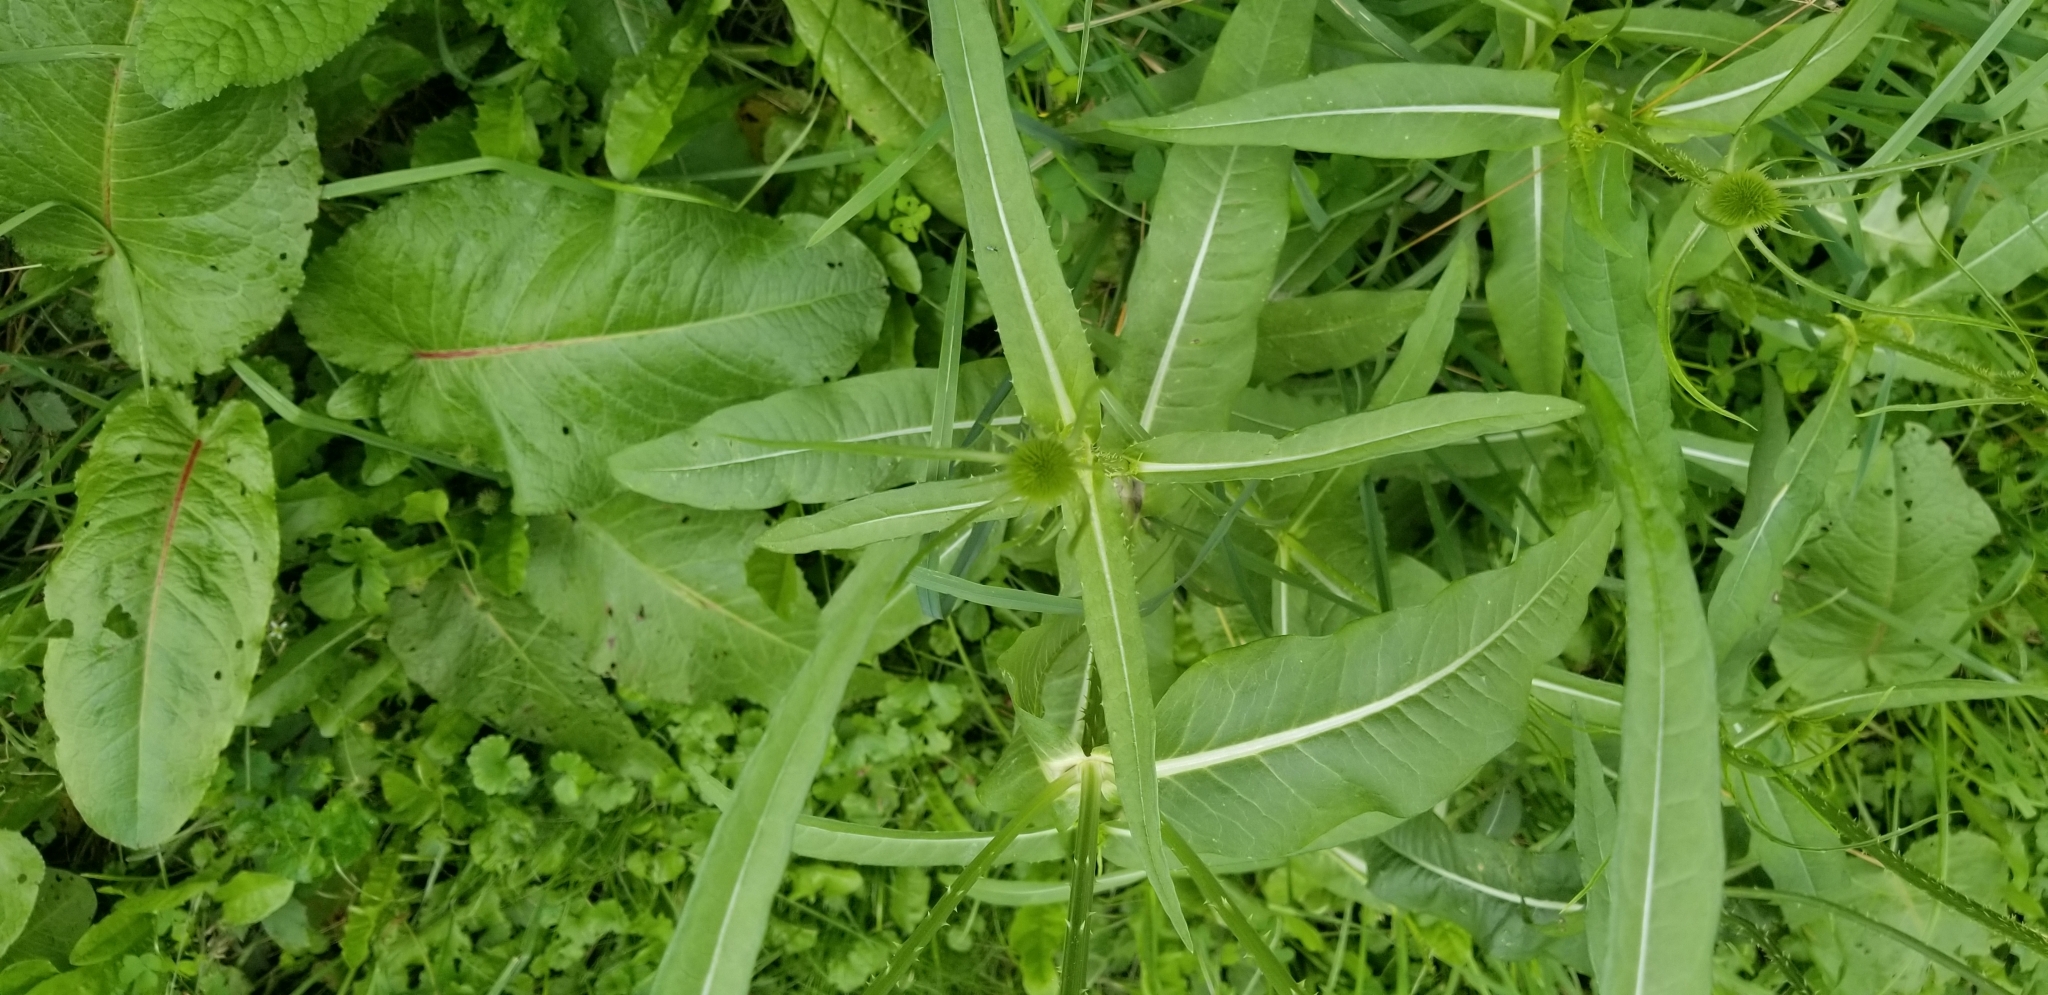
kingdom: Plantae
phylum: Tracheophyta
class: Magnoliopsida
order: Dipsacales
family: Caprifoliaceae
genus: Dipsacus
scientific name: Dipsacus fullonum
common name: Teasel
